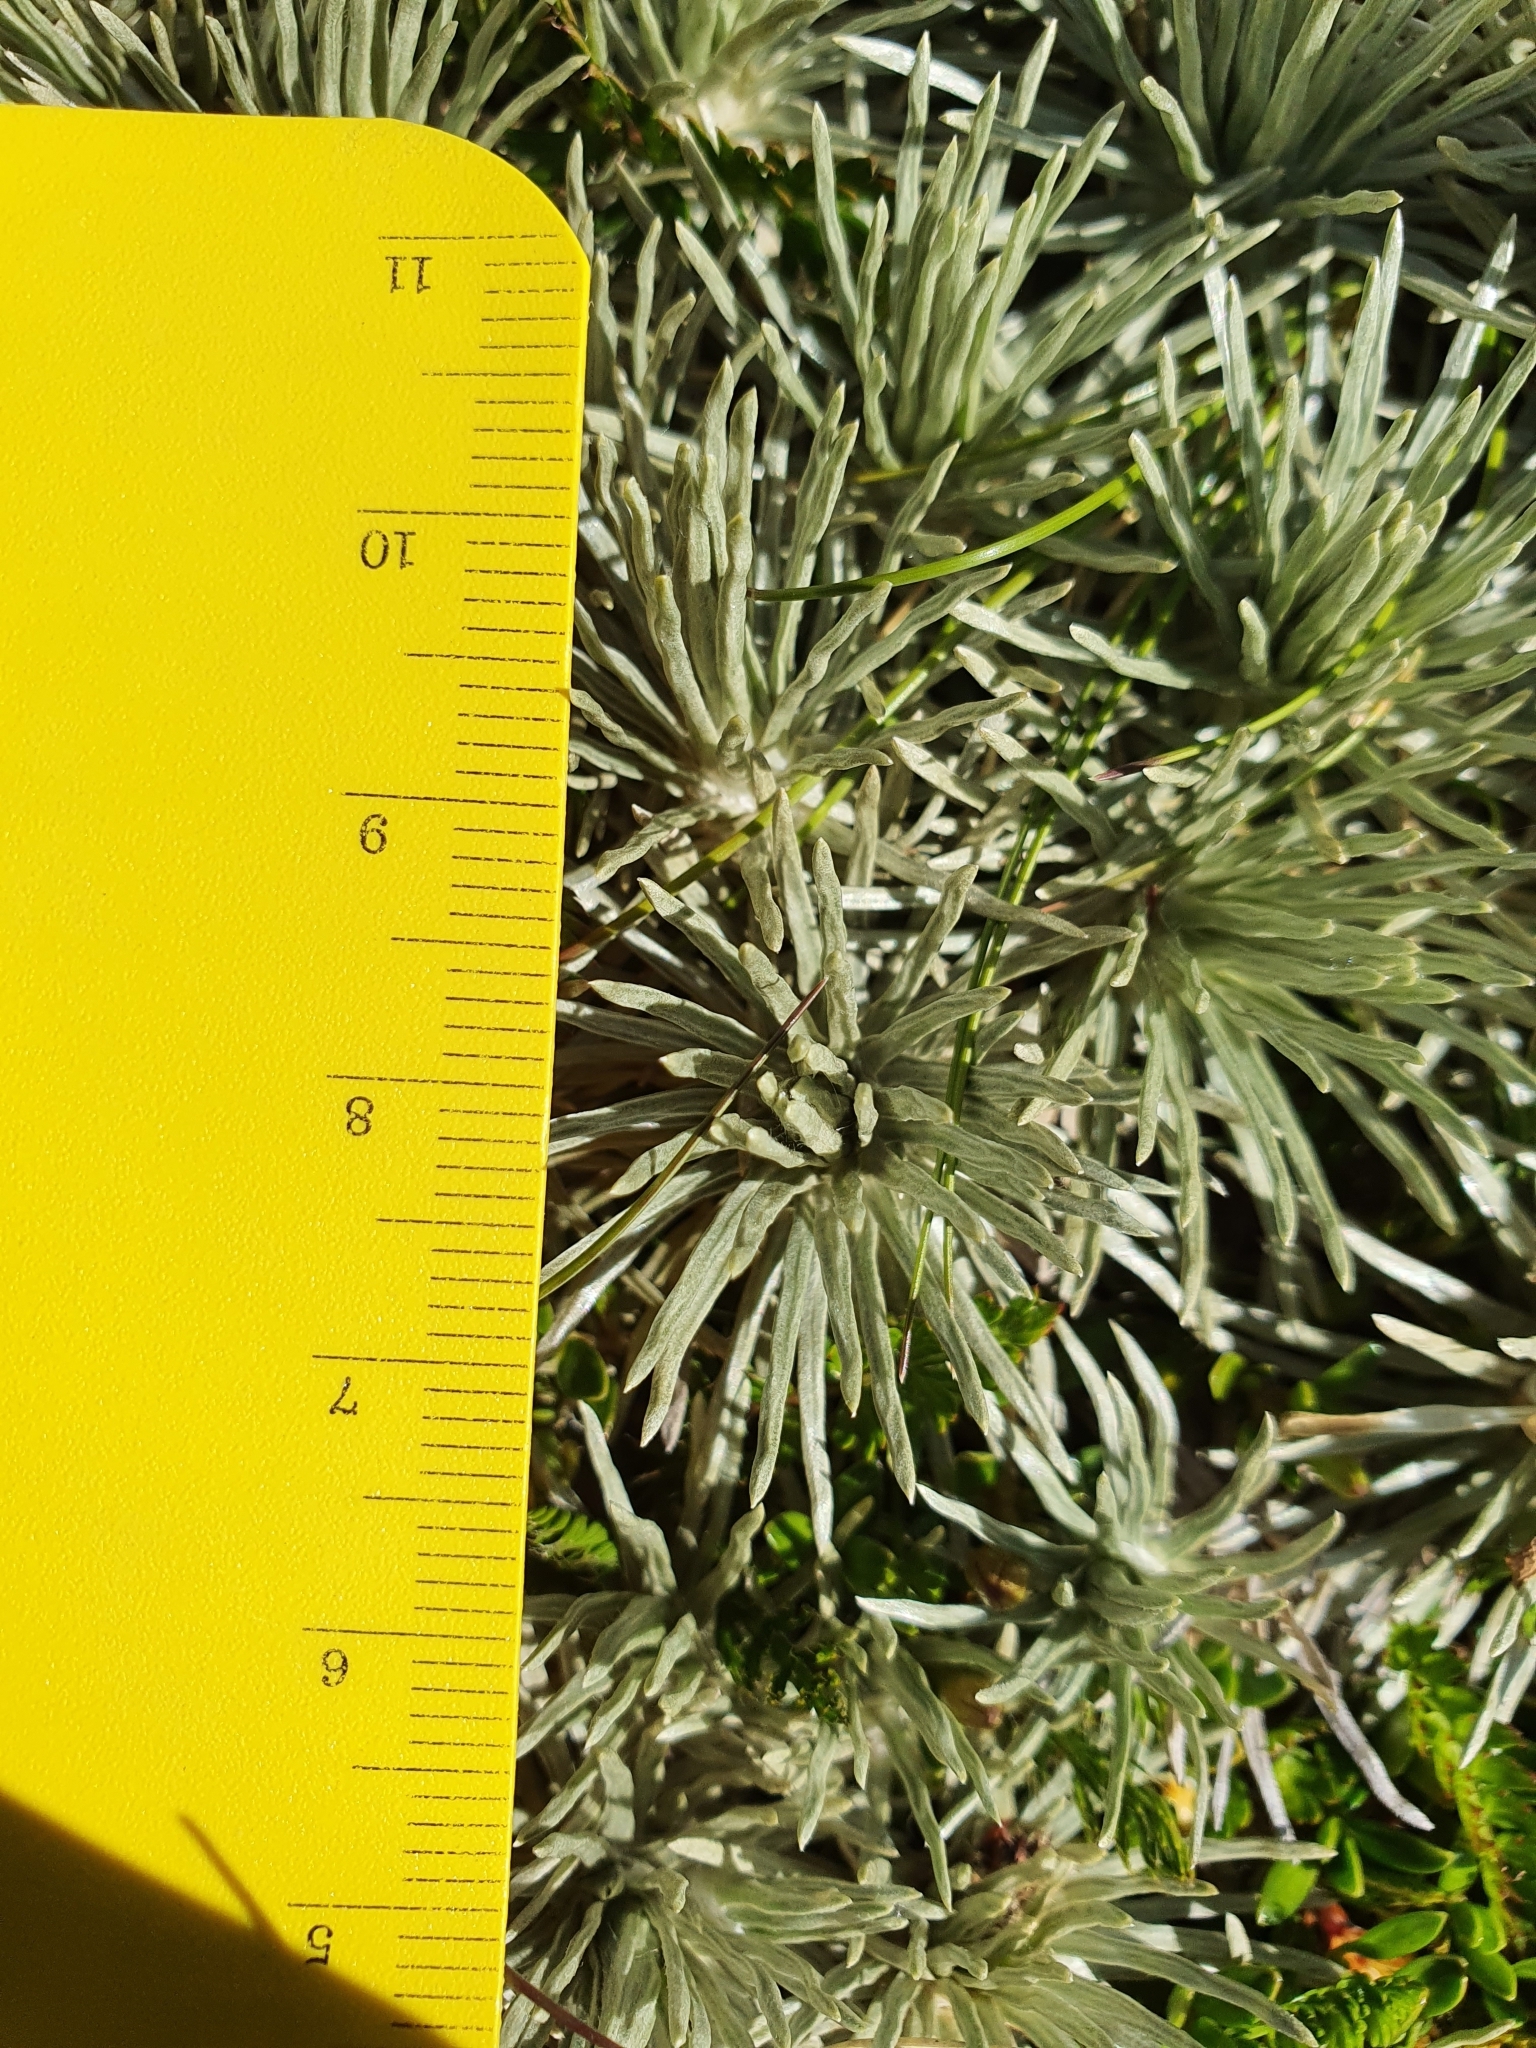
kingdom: Plantae
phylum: Tracheophyta
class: Magnoliopsida
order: Asterales
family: Asteraceae
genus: Celmisia
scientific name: Celmisia sessiliflora
